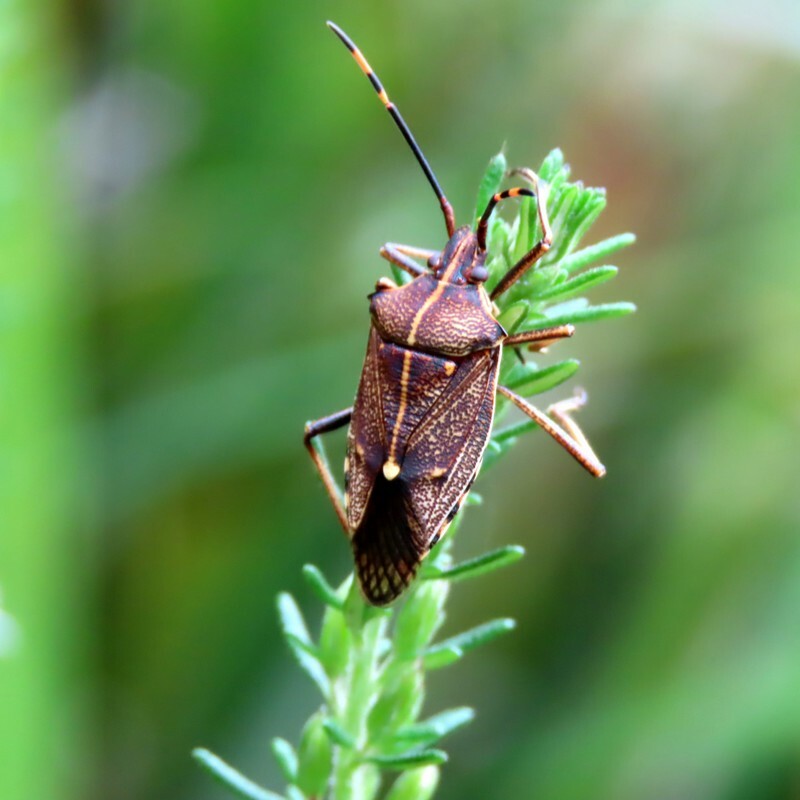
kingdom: Animalia
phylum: Arthropoda
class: Insecta
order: Hemiptera
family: Pentatomidae
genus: Omyta
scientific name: Omyta centrolineata
